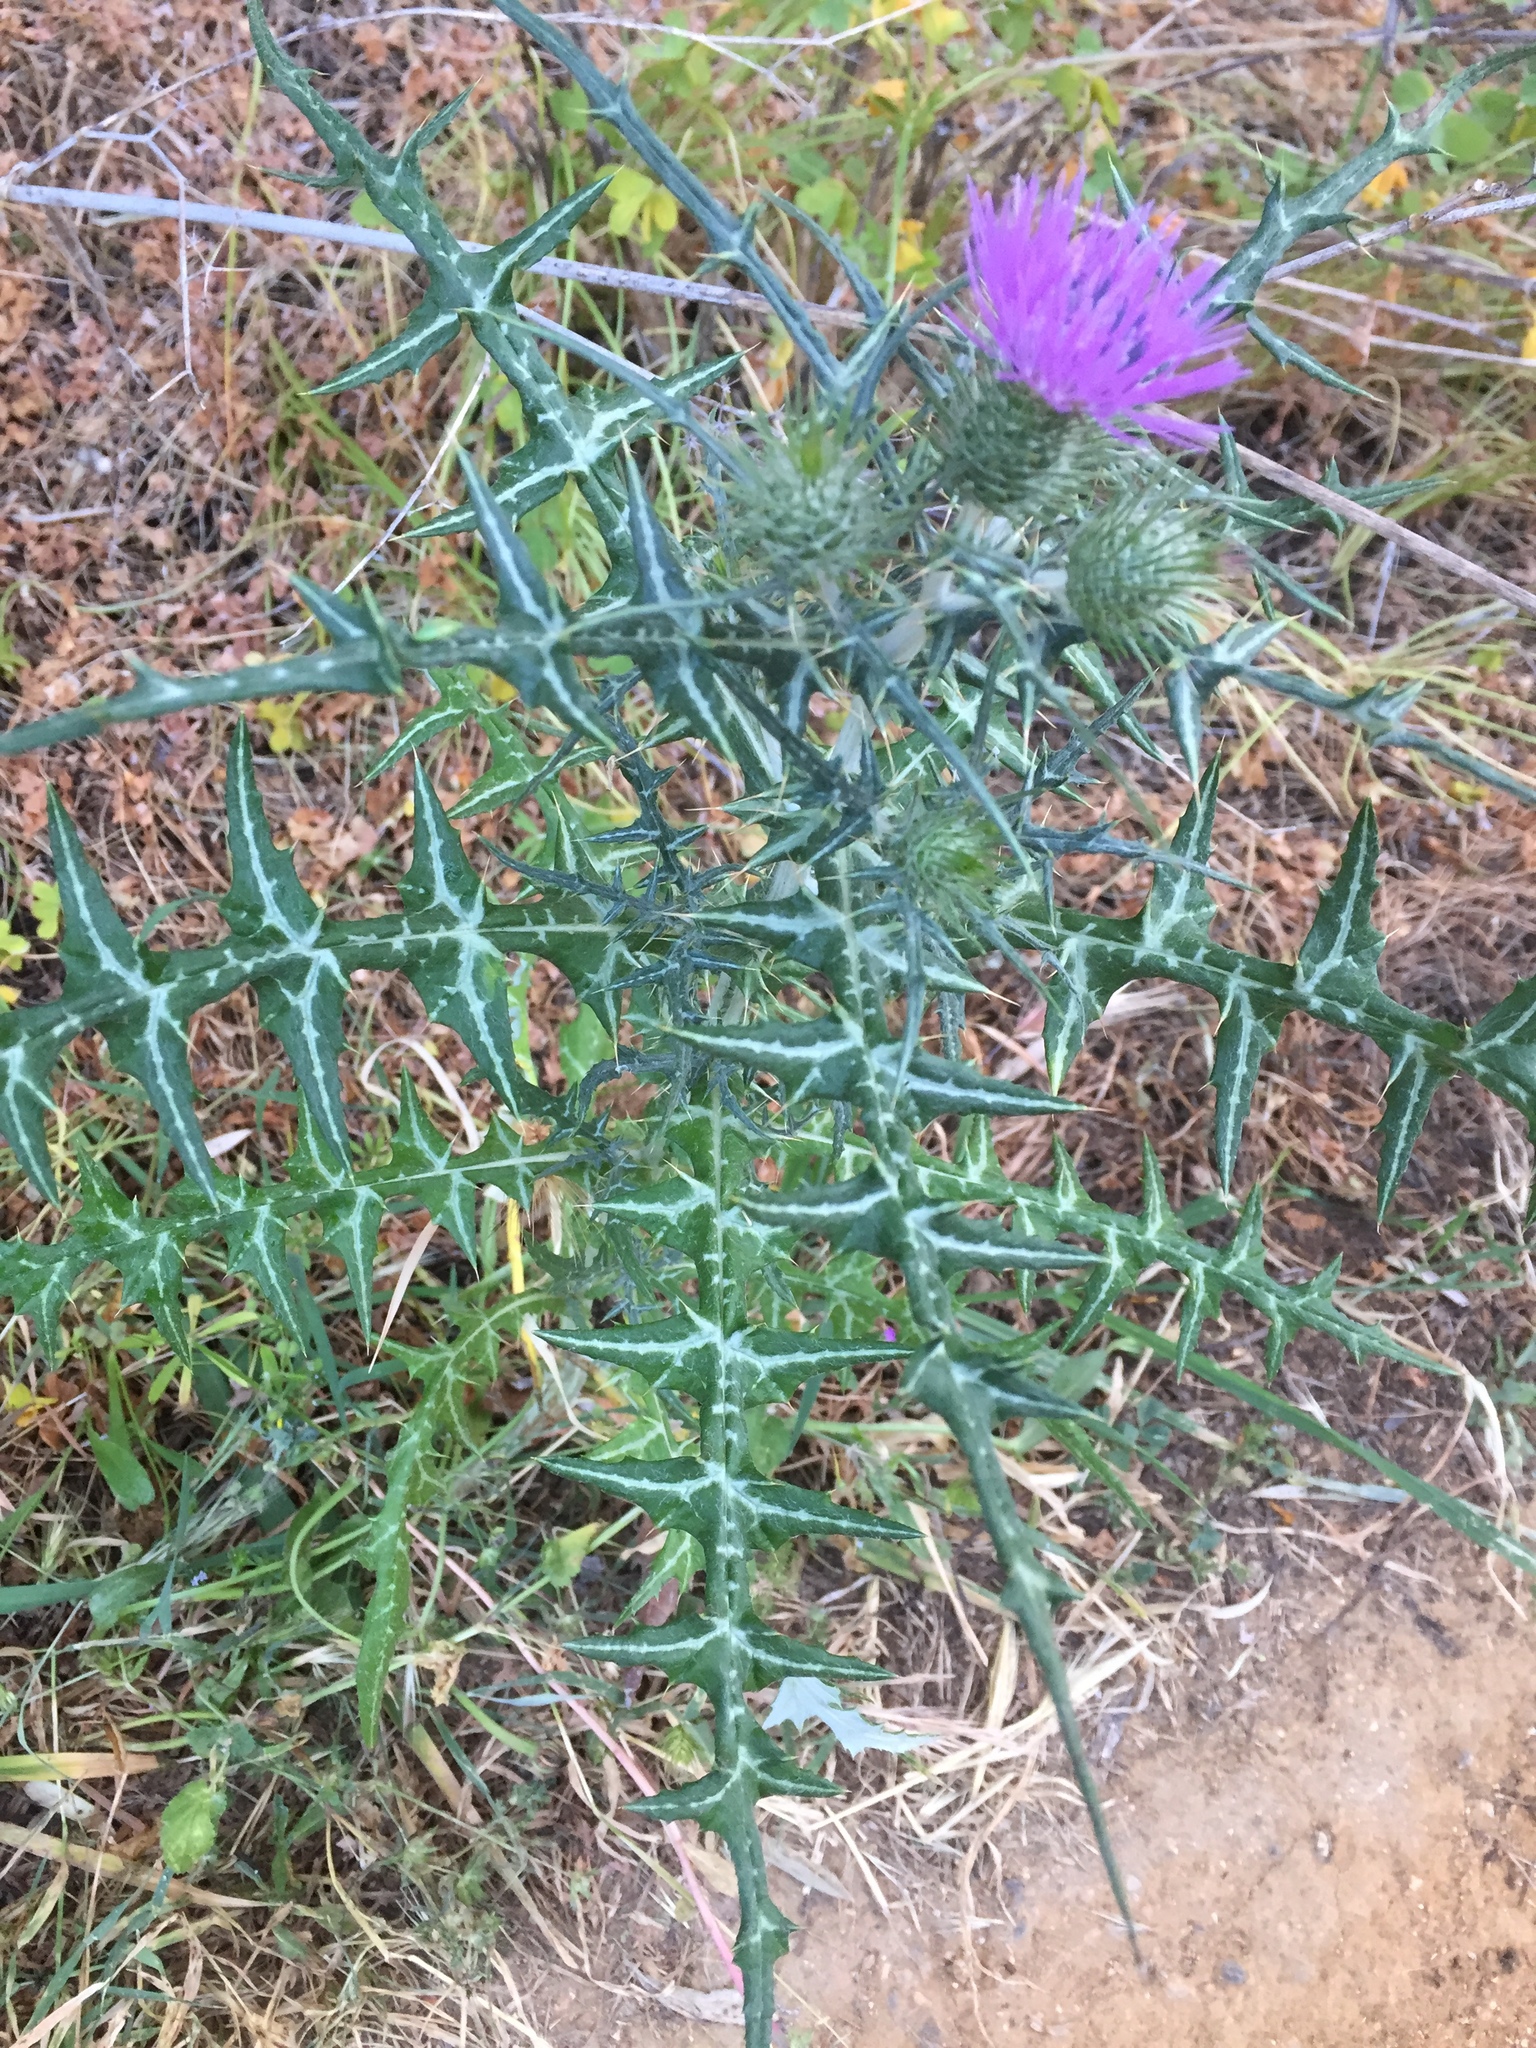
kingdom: Plantae
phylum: Tracheophyta
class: Magnoliopsida
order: Asterales
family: Asteraceae
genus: Galactites
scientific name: Galactites tomentosa
